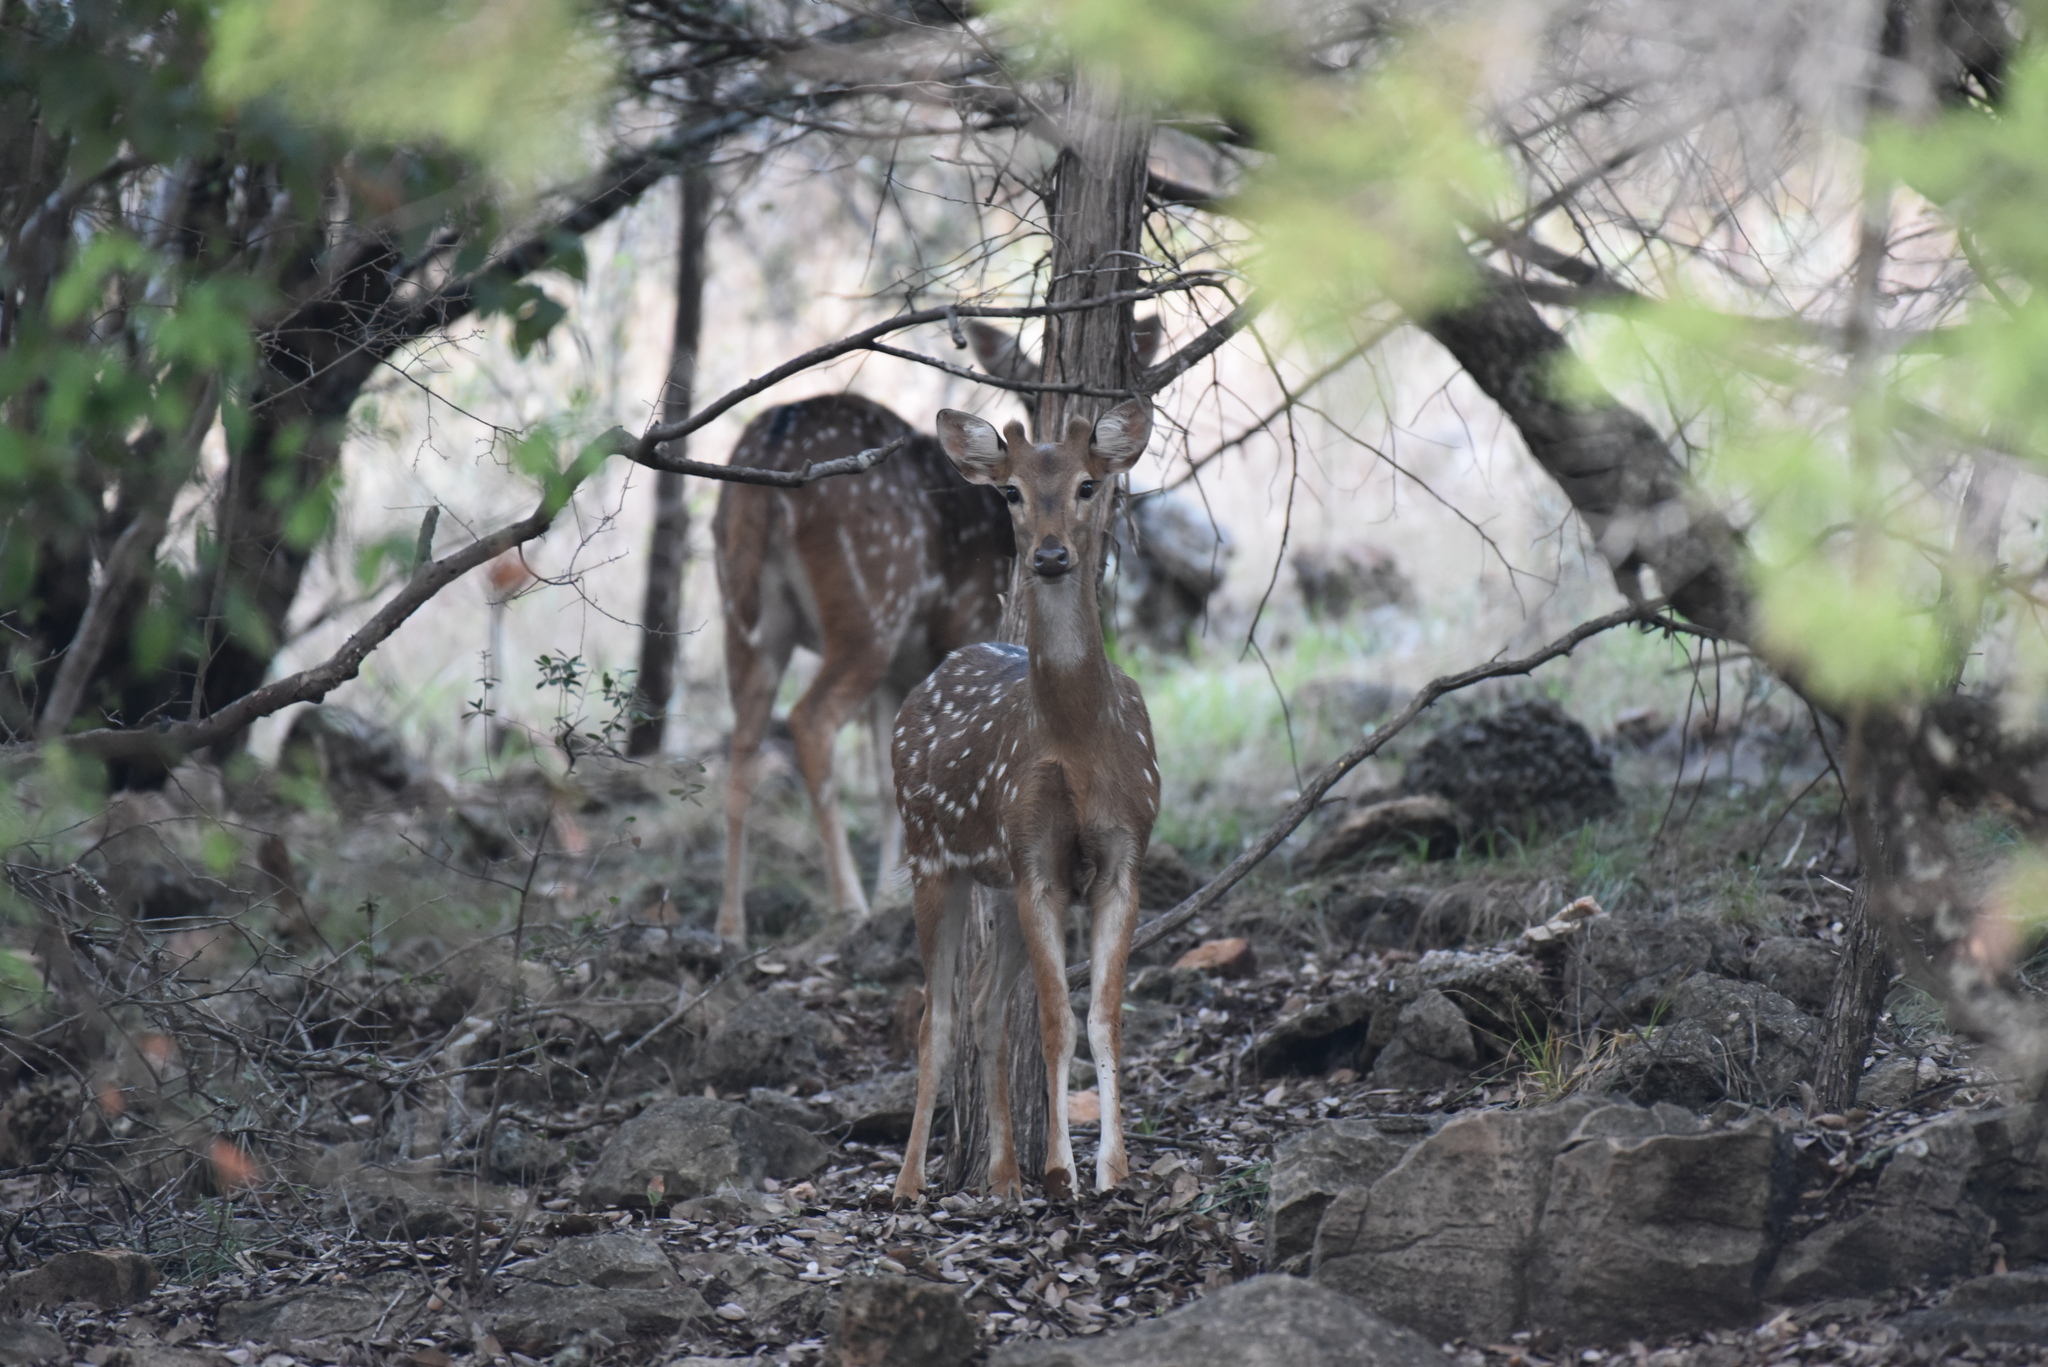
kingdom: Animalia
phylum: Chordata
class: Mammalia
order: Artiodactyla
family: Cervidae
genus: Axis
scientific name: Axis axis
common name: Chital
